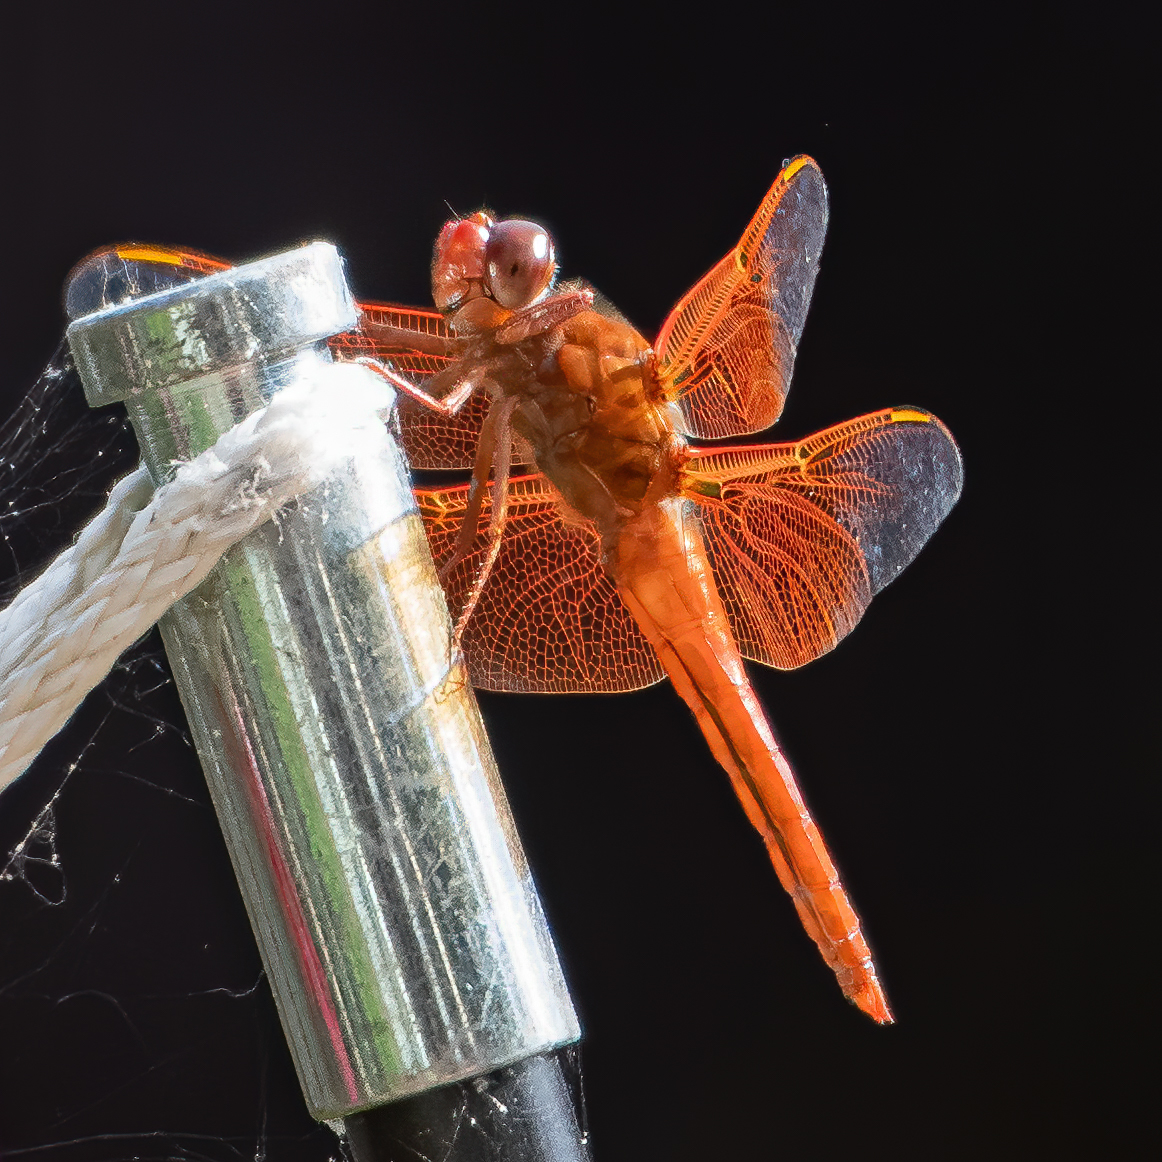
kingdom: Animalia
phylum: Arthropoda
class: Insecta
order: Odonata
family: Libellulidae
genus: Libellula
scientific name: Libellula saturata
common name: Flame skimmer
